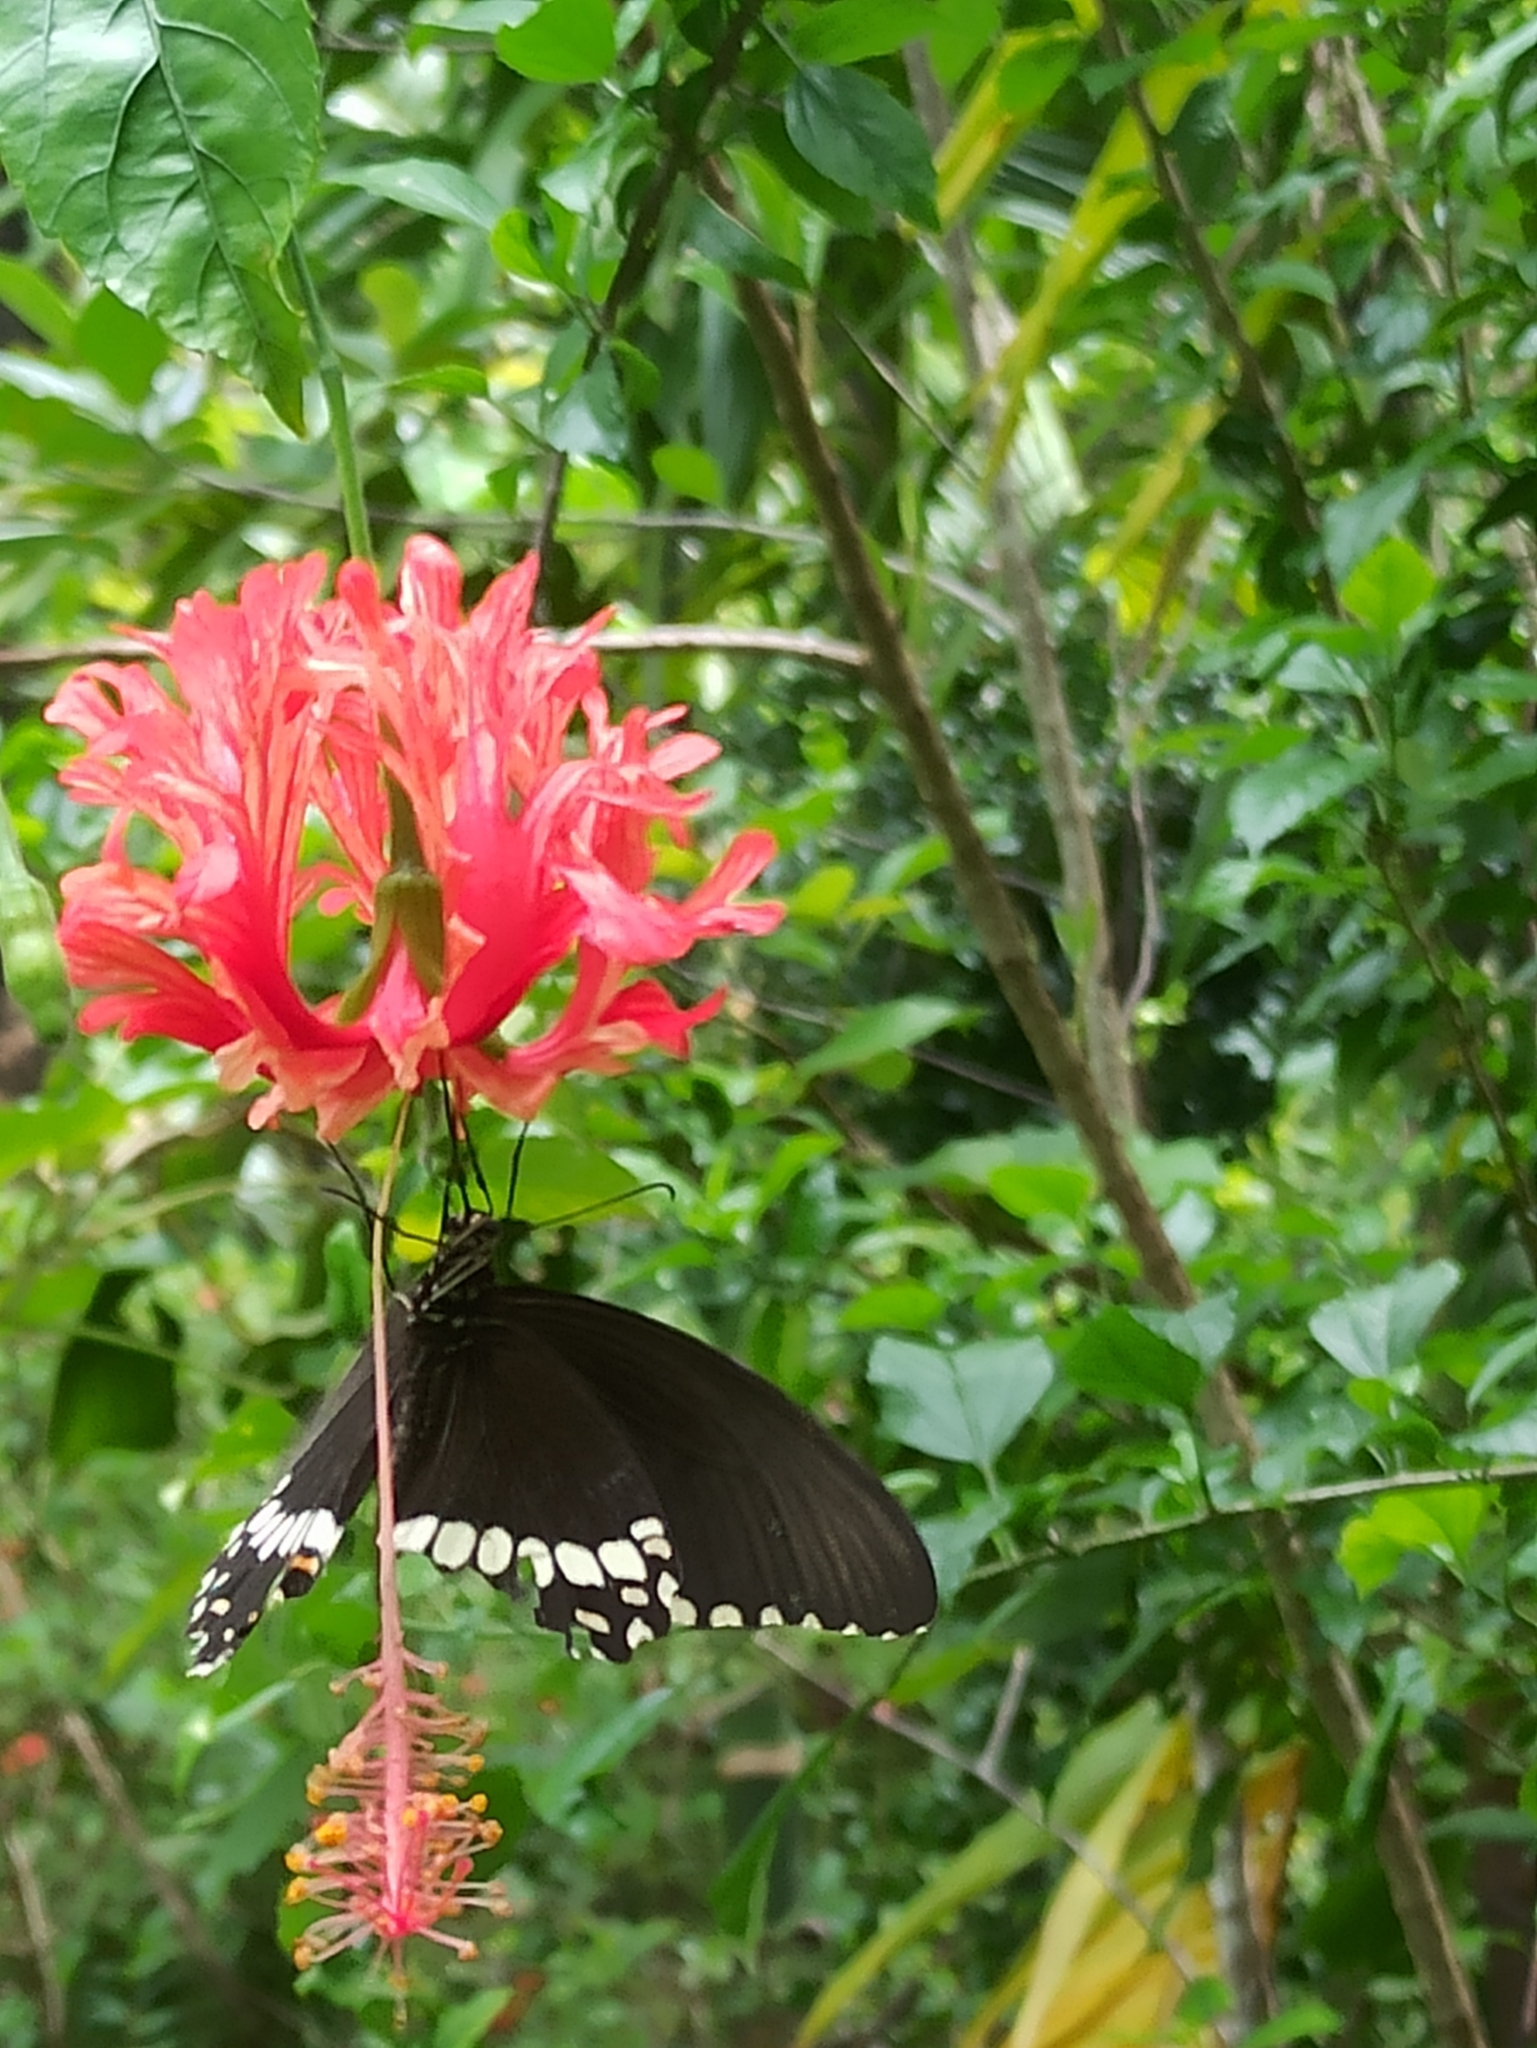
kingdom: Animalia
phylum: Arthropoda
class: Insecta
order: Lepidoptera
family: Papilionidae
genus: Papilio
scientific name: Papilio polytes
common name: Common mormon
